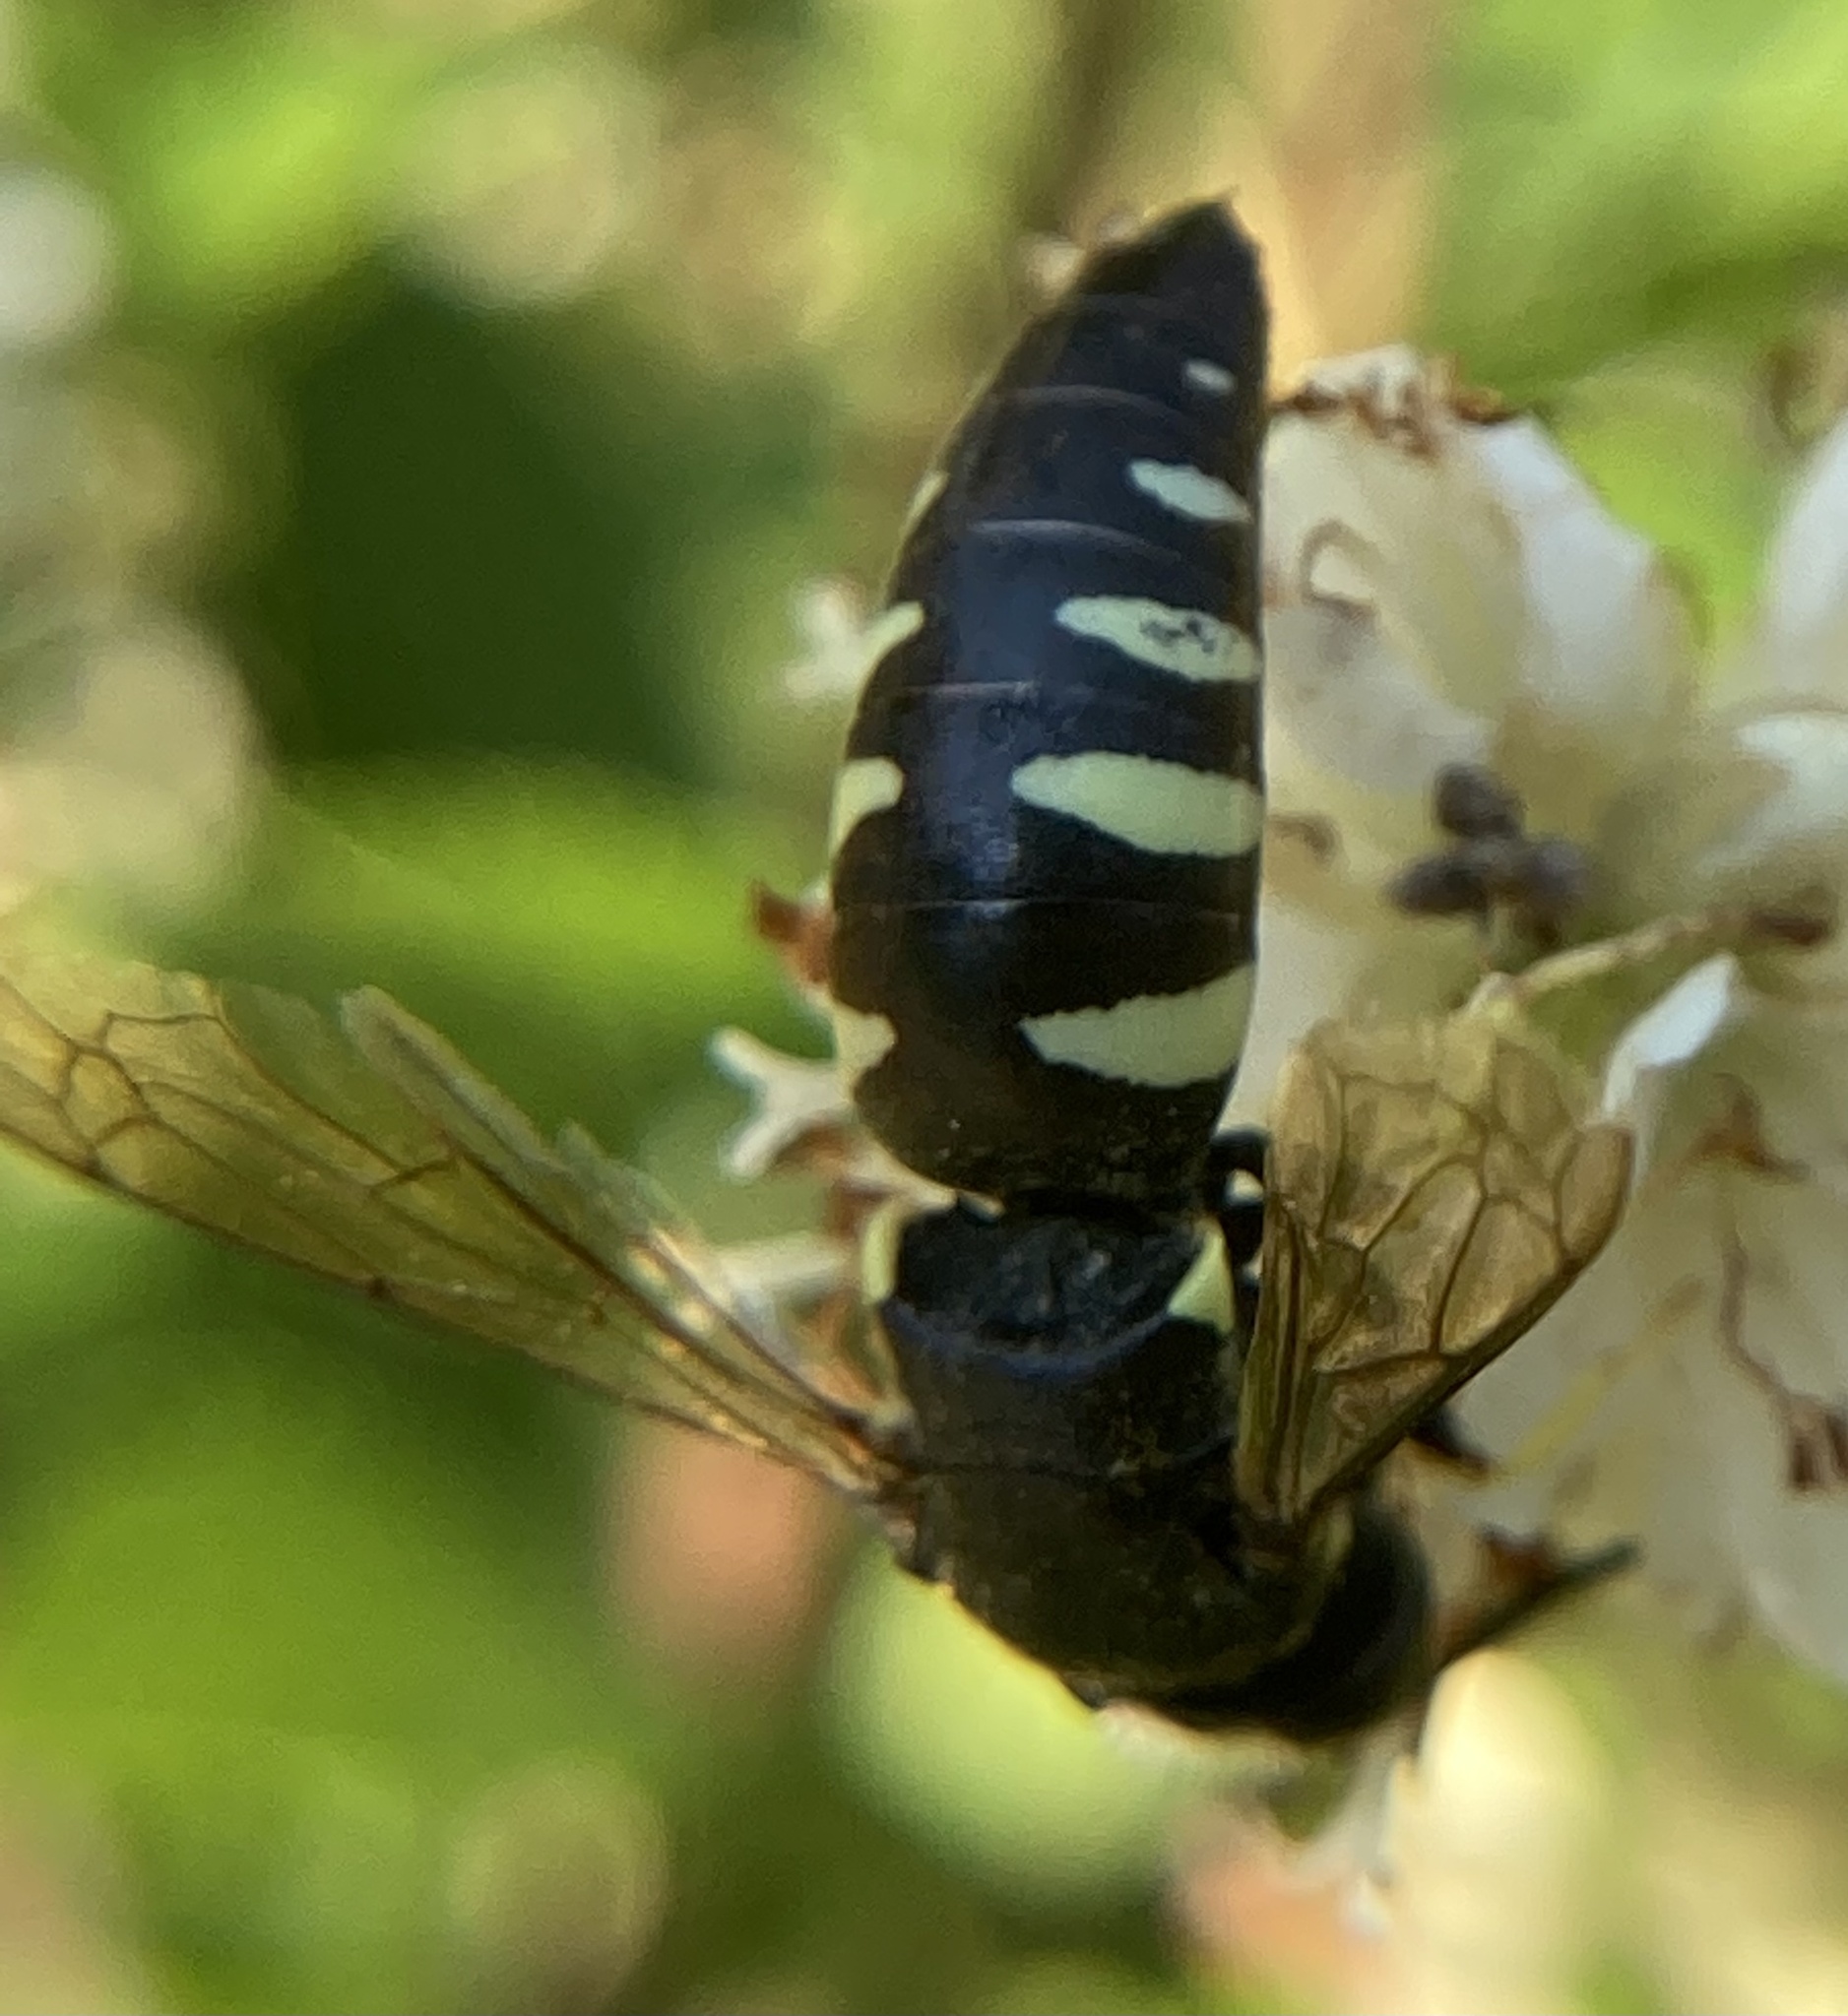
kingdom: Animalia
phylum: Arthropoda
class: Insecta
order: Hymenoptera
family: Crabronidae
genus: Bicyrtes
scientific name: Bicyrtes quadrifasciatus
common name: Four-banded stink bug hunter wasp
